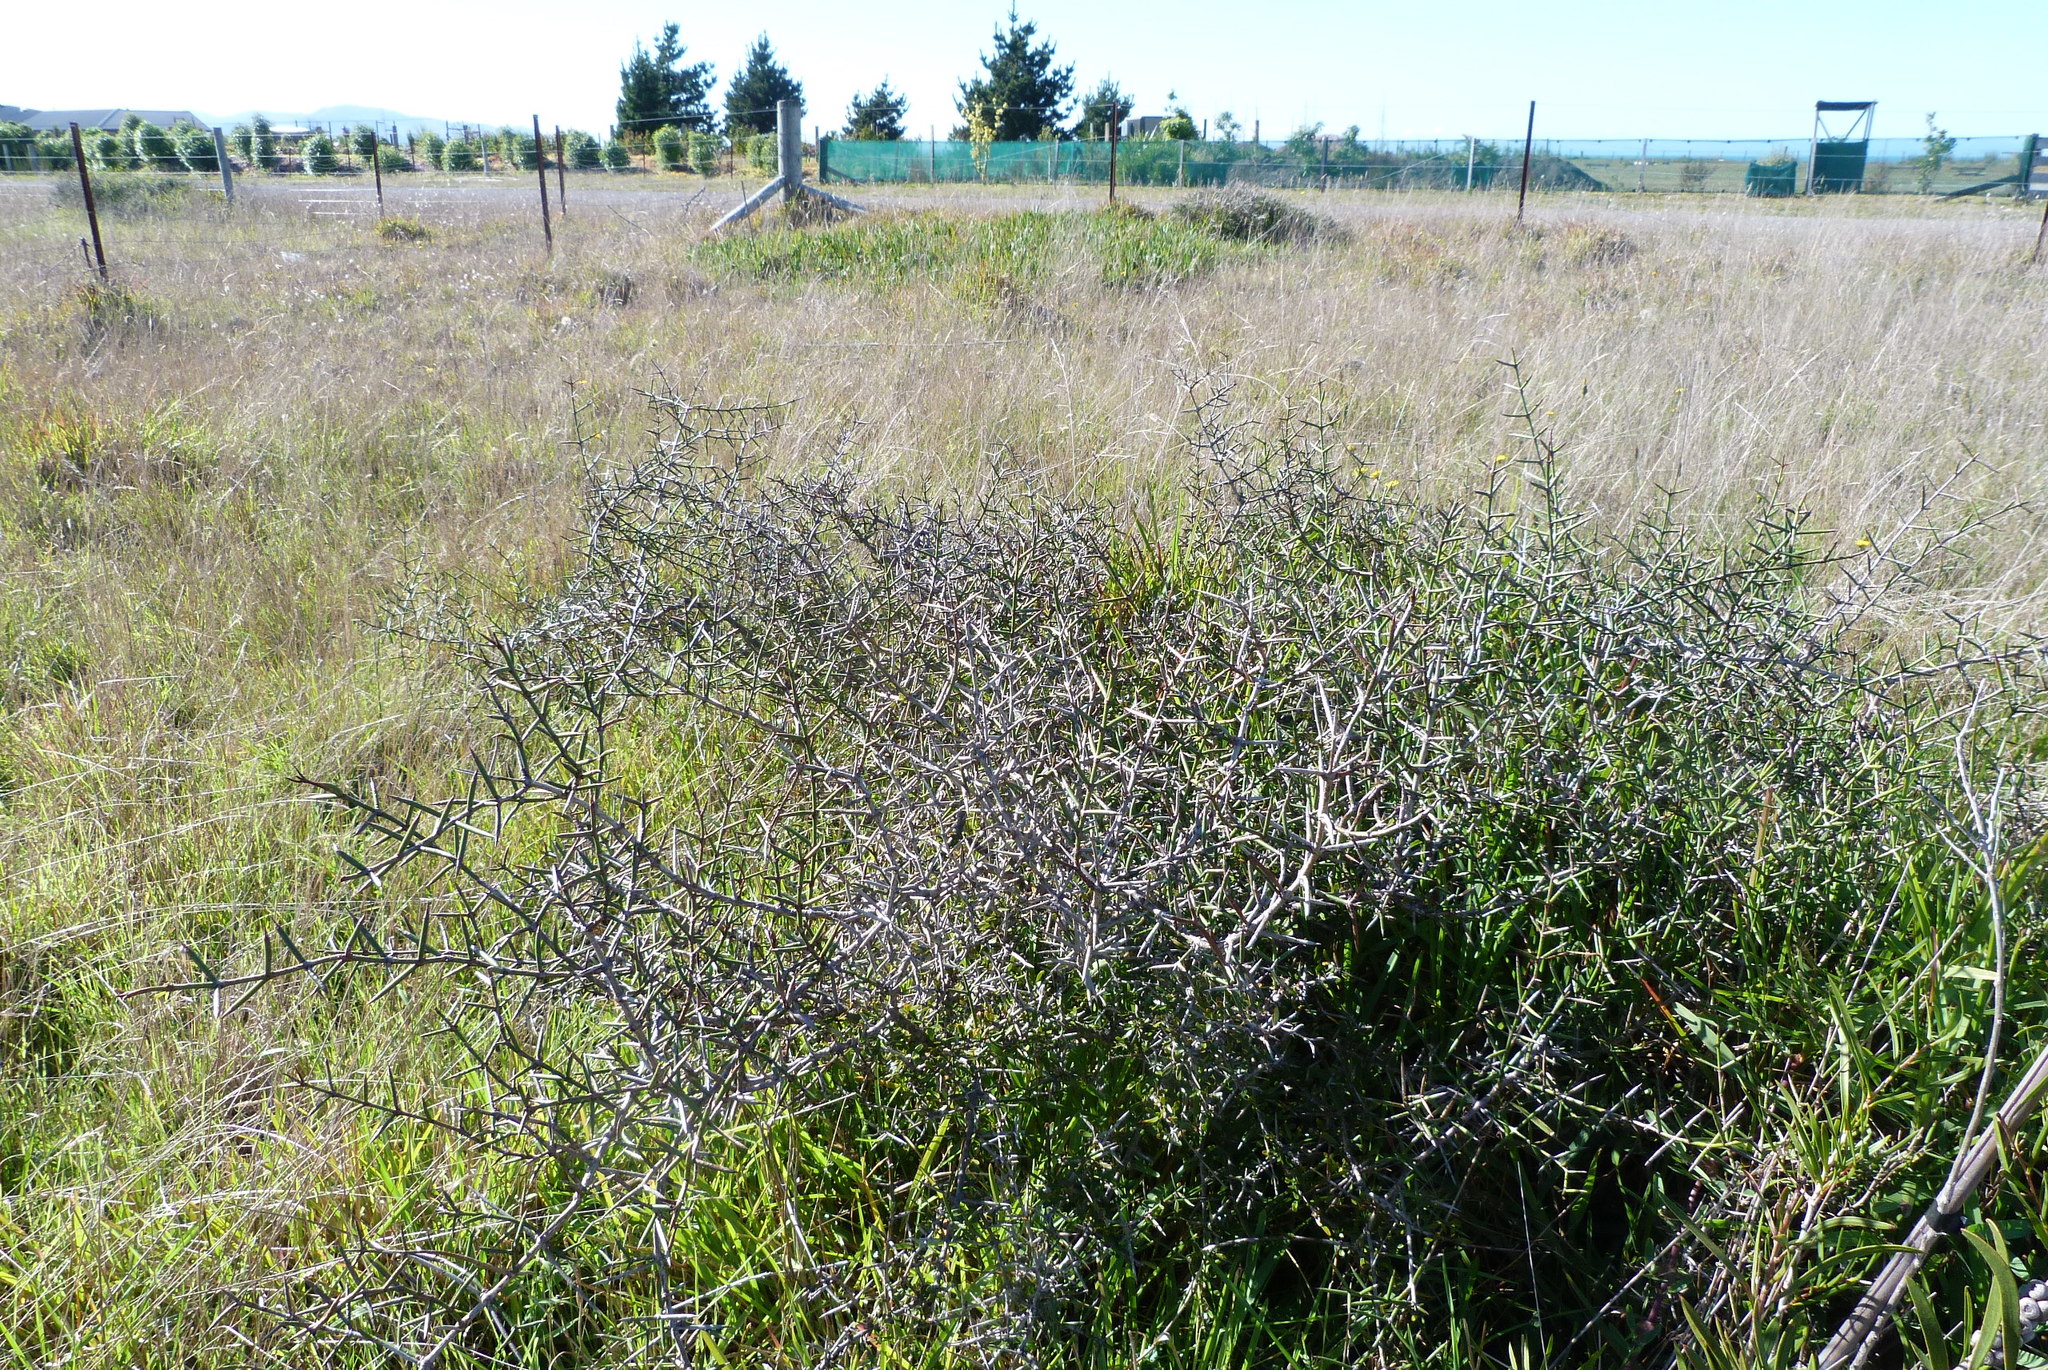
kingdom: Plantae
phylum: Tracheophyta
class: Magnoliopsida
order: Rosales
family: Rhamnaceae
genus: Discaria
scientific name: Discaria toumatou
